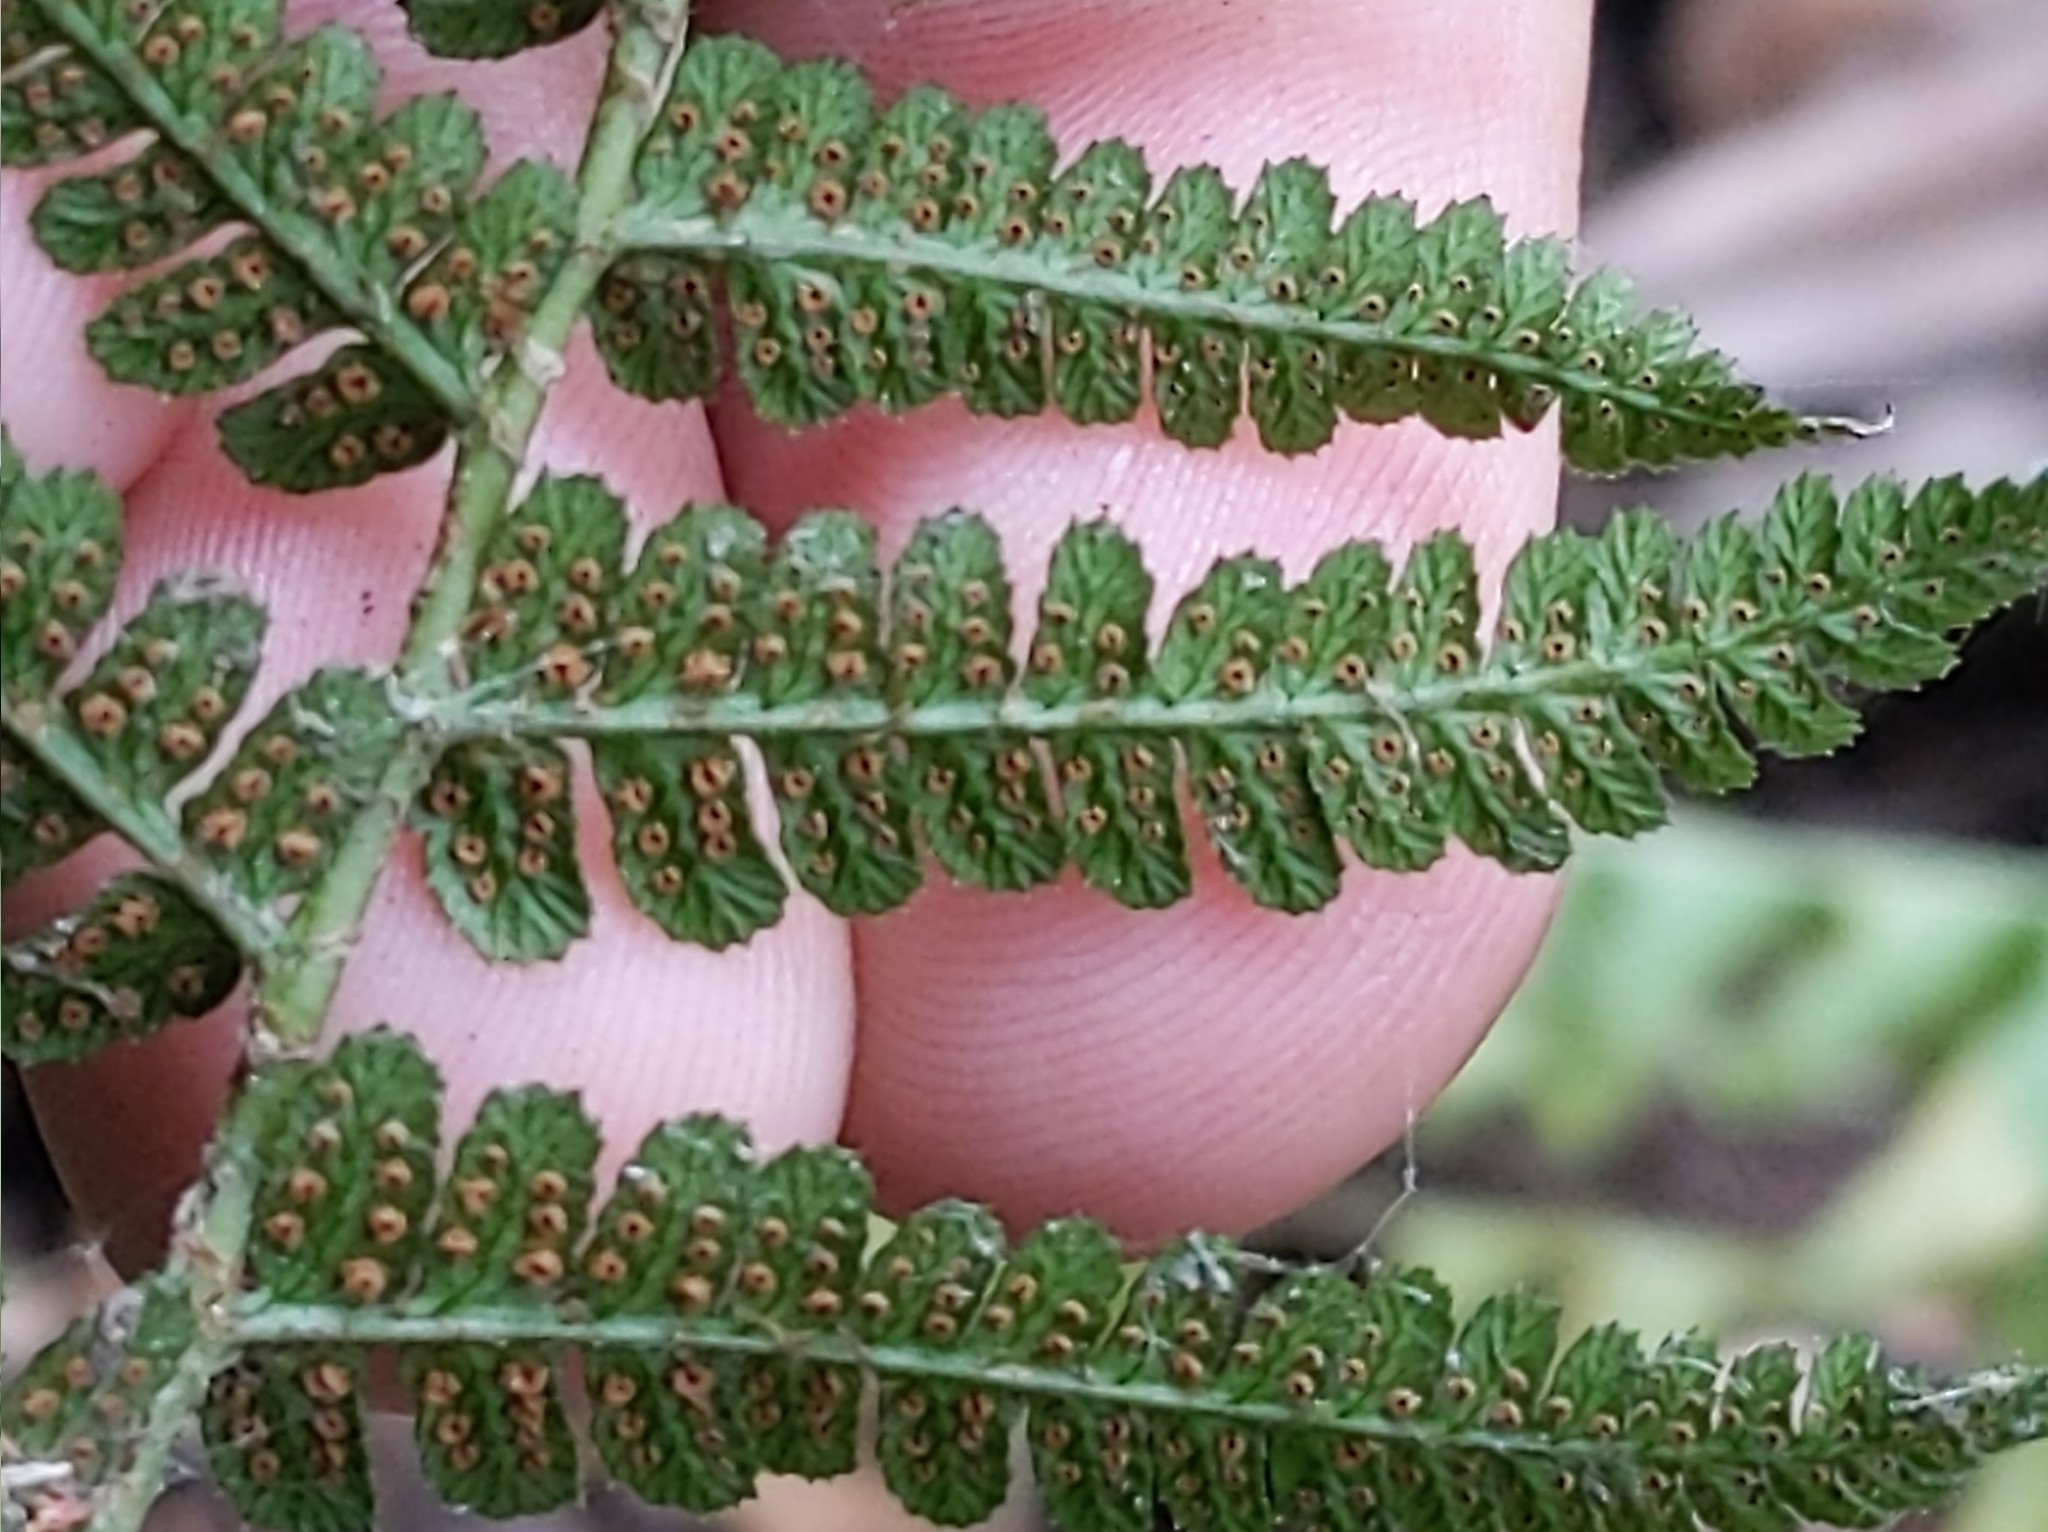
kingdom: Plantae
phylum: Tracheophyta
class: Polypodiopsida
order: Polypodiales
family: Dryopteridaceae
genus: Dryopteris
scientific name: Dryopteris arguta
